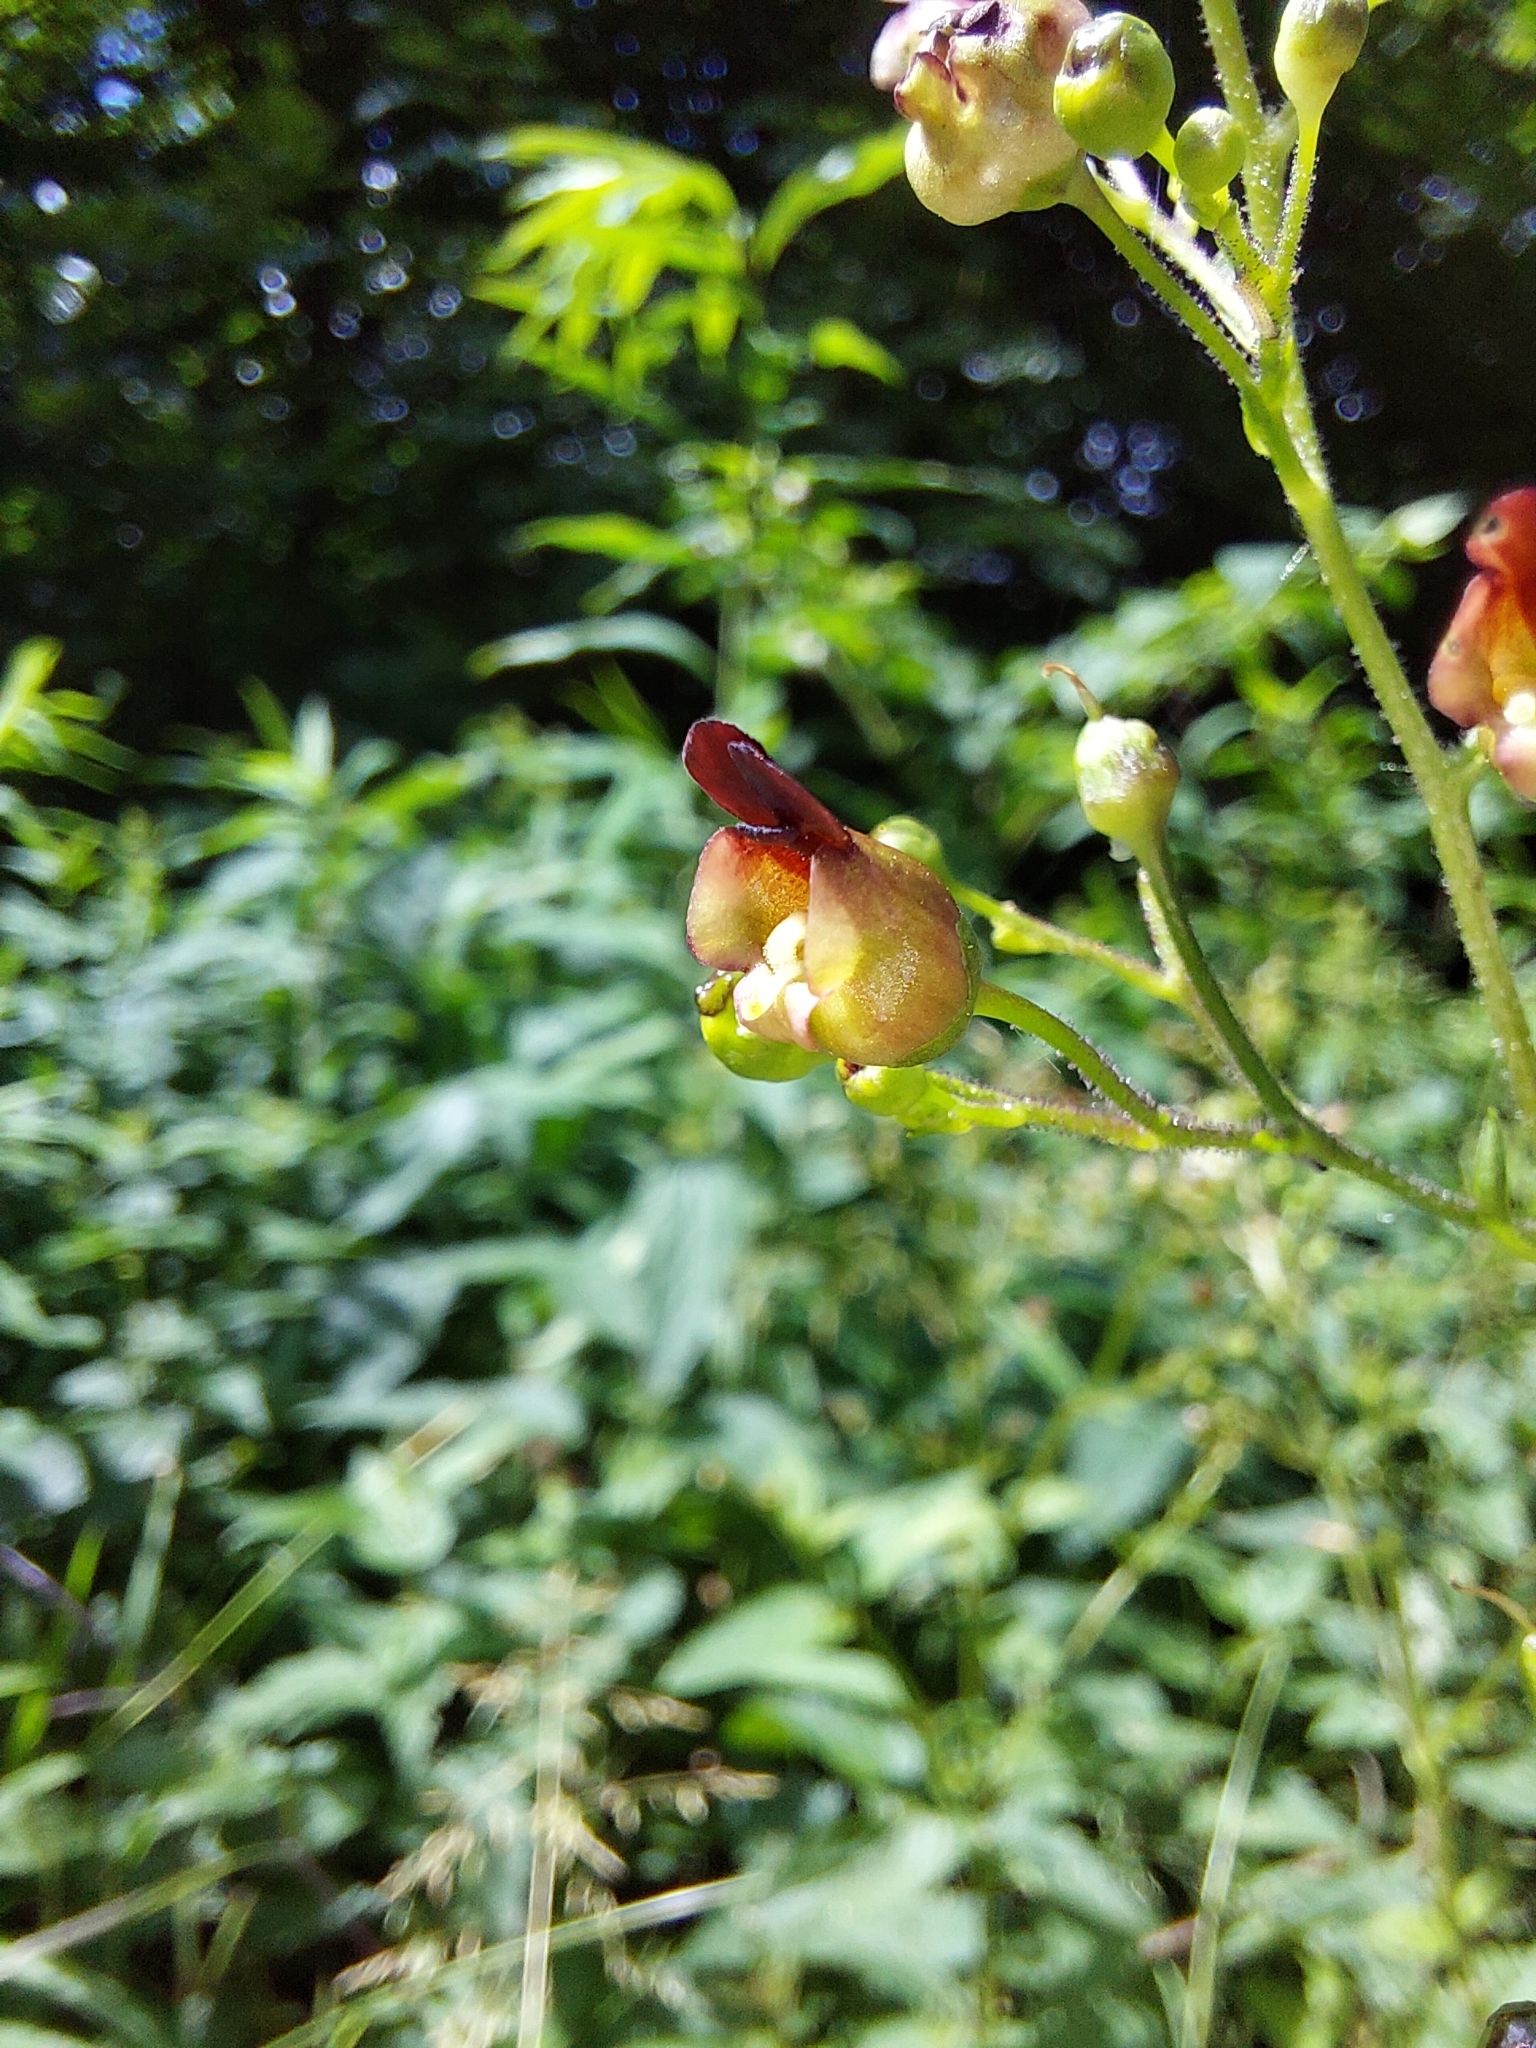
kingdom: Plantae
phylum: Tracheophyta
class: Magnoliopsida
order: Lamiales
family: Scrophulariaceae
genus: Scrophularia
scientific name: Scrophularia nodosa
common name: Common figwort
